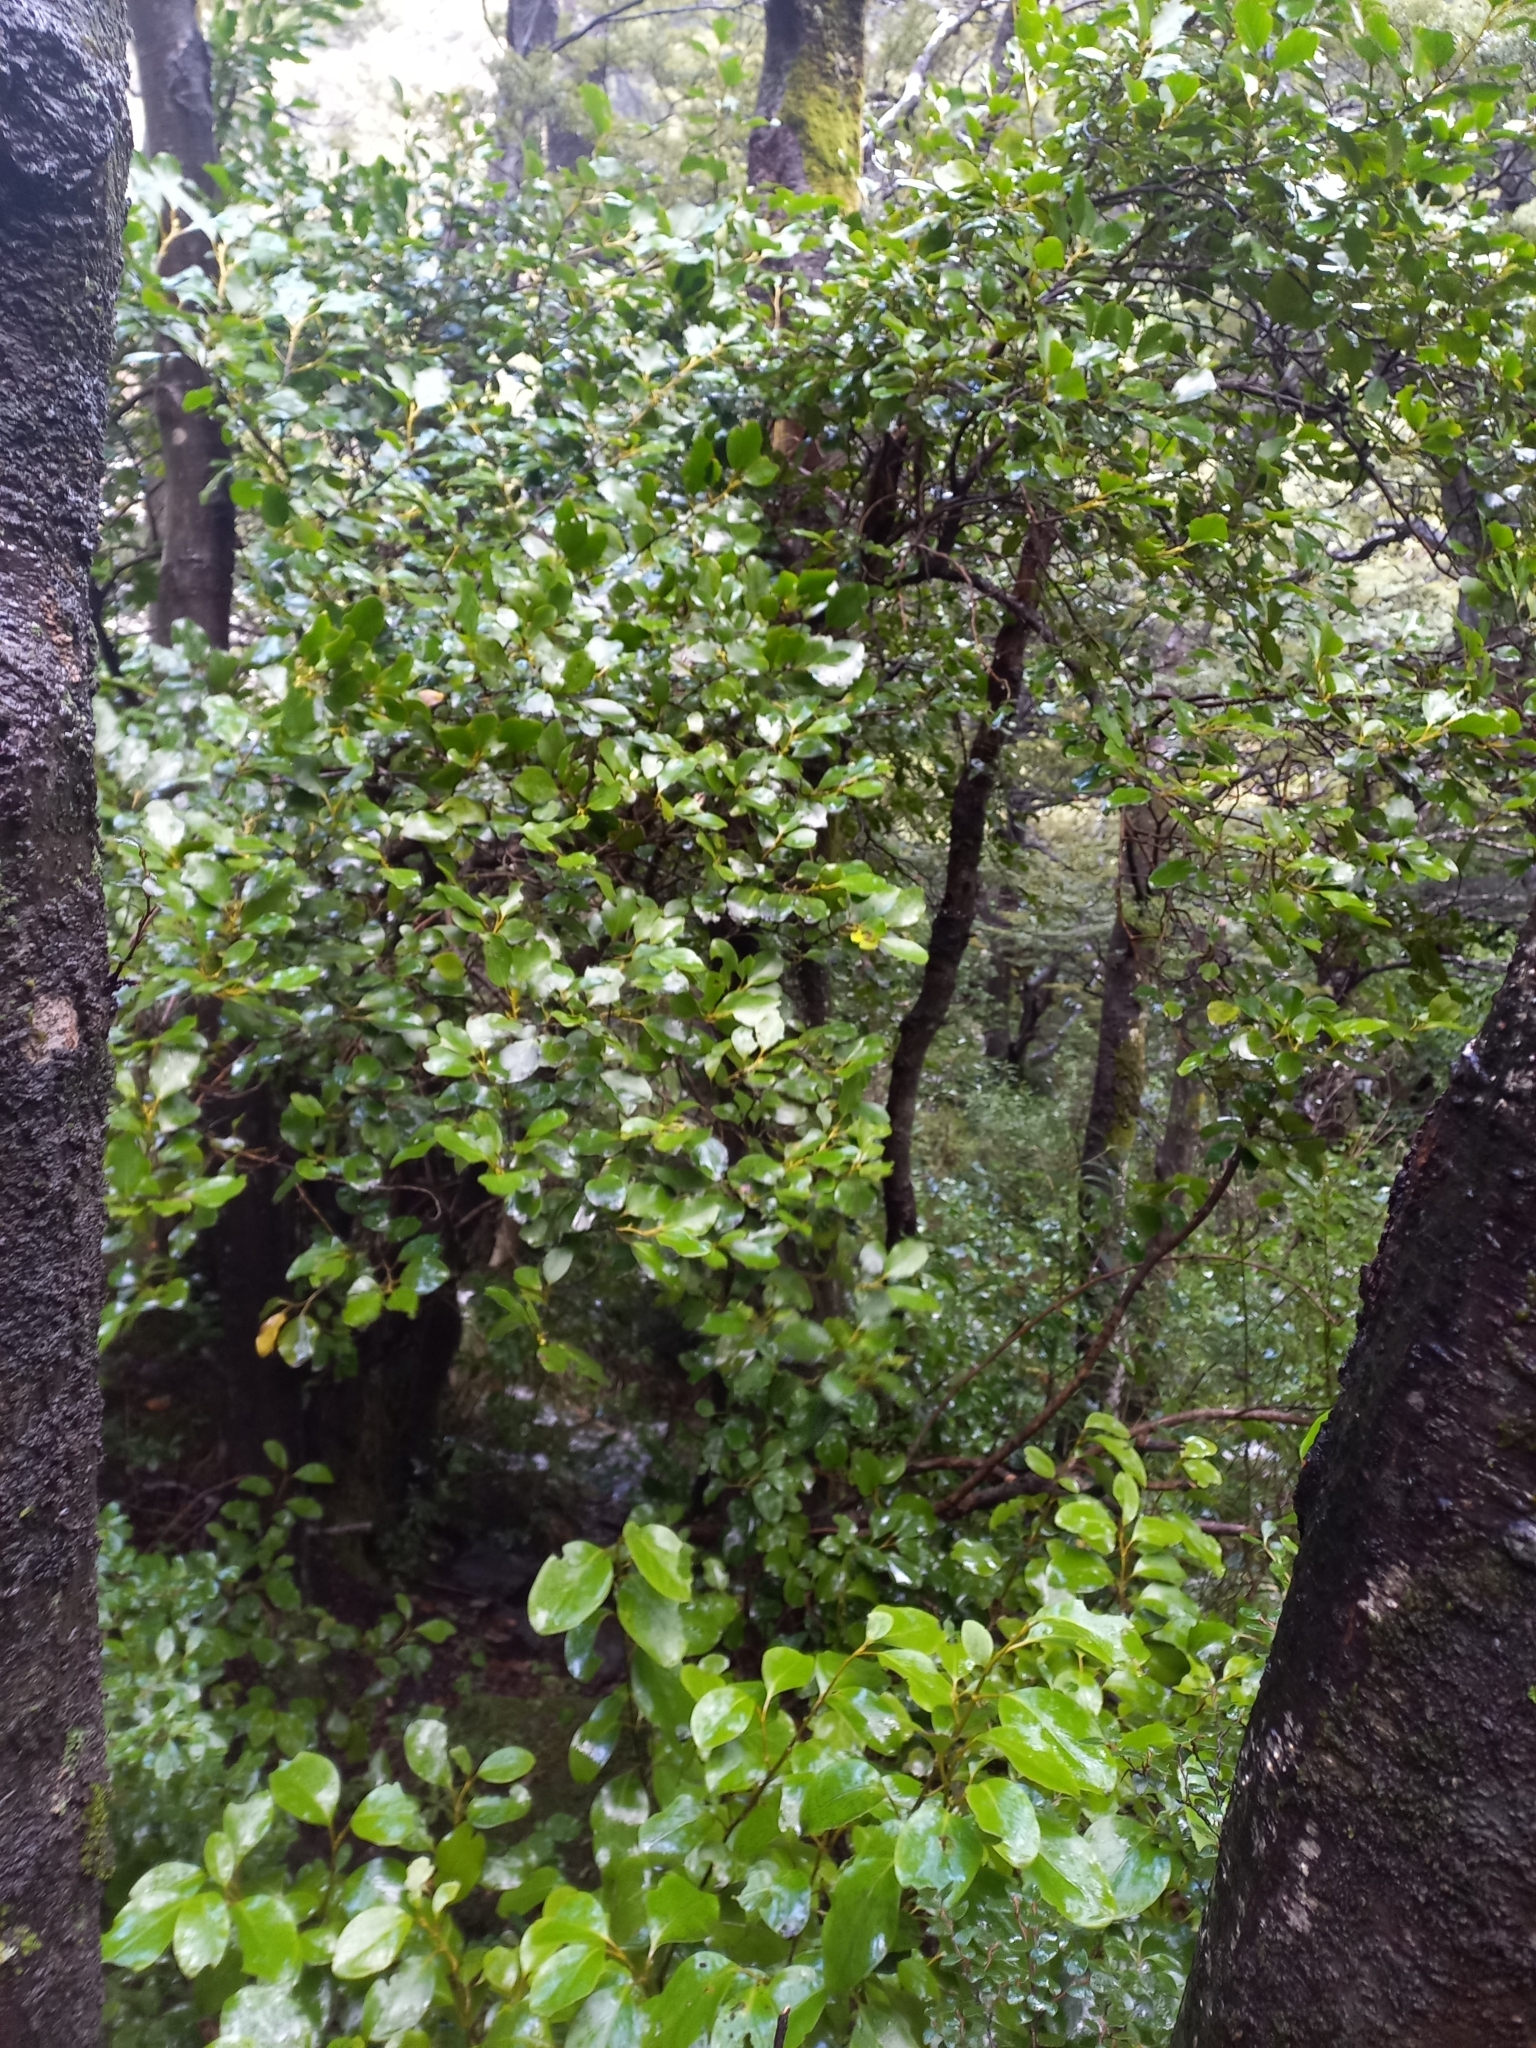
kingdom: Plantae
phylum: Tracheophyta
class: Magnoliopsida
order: Apiales
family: Griseliniaceae
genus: Griselinia
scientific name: Griselinia littoralis
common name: New zealand broadleaf
